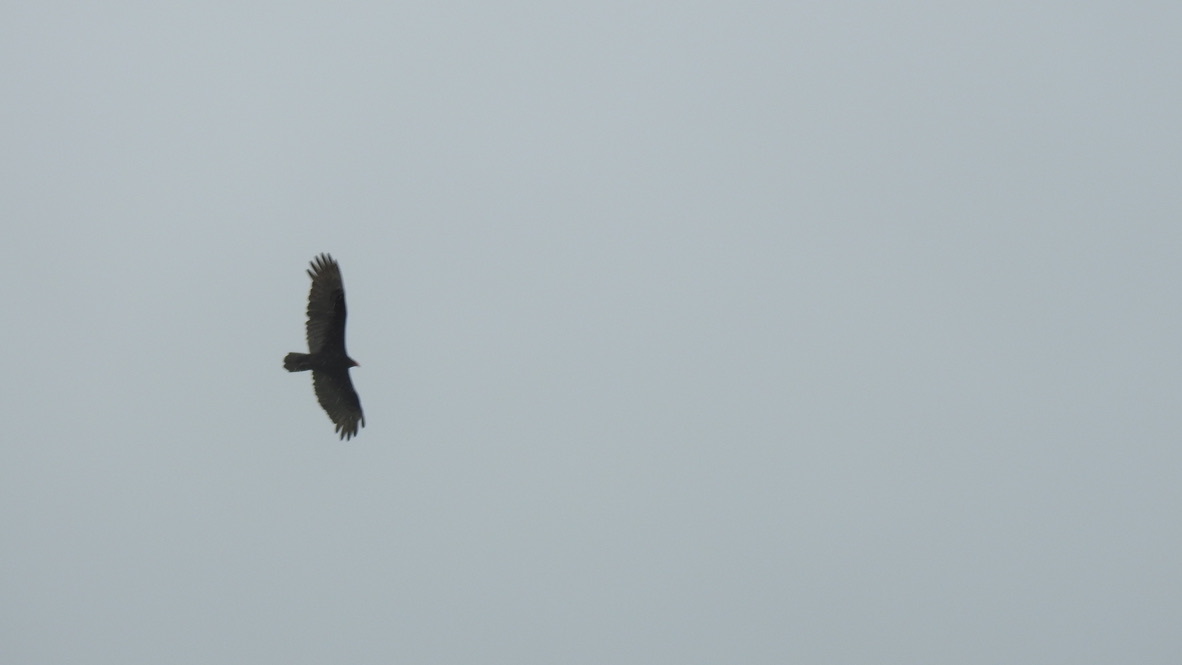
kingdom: Animalia
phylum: Chordata
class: Aves
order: Accipitriformes
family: Cathartidae
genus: Cathartes
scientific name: Cathartes aura
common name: Turkey vulture
